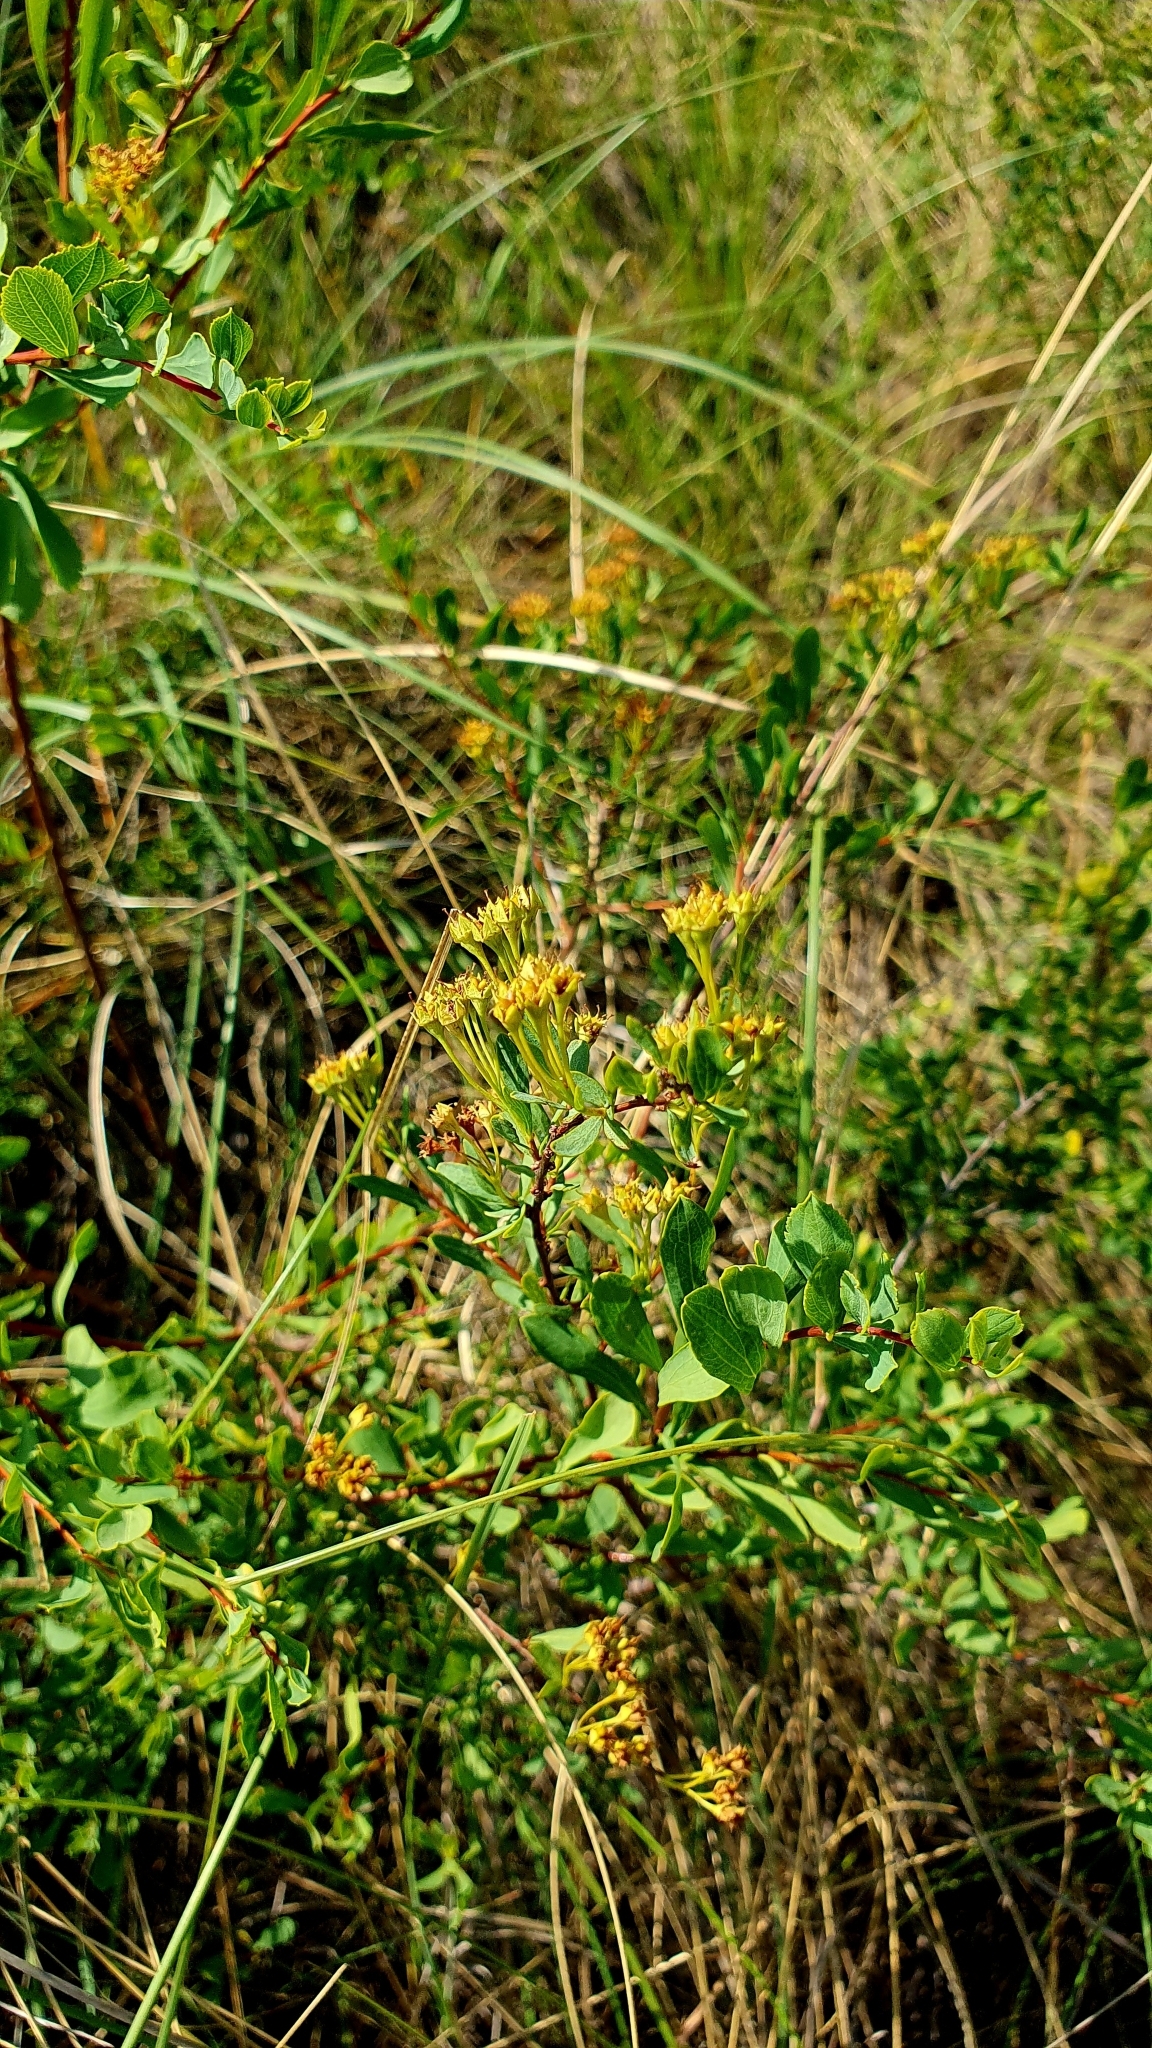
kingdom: Plantae
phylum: Tracheophyta
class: Magnoliopsida
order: Rosales
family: Rosaceae
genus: Spiraea
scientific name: Spiraea crenata
